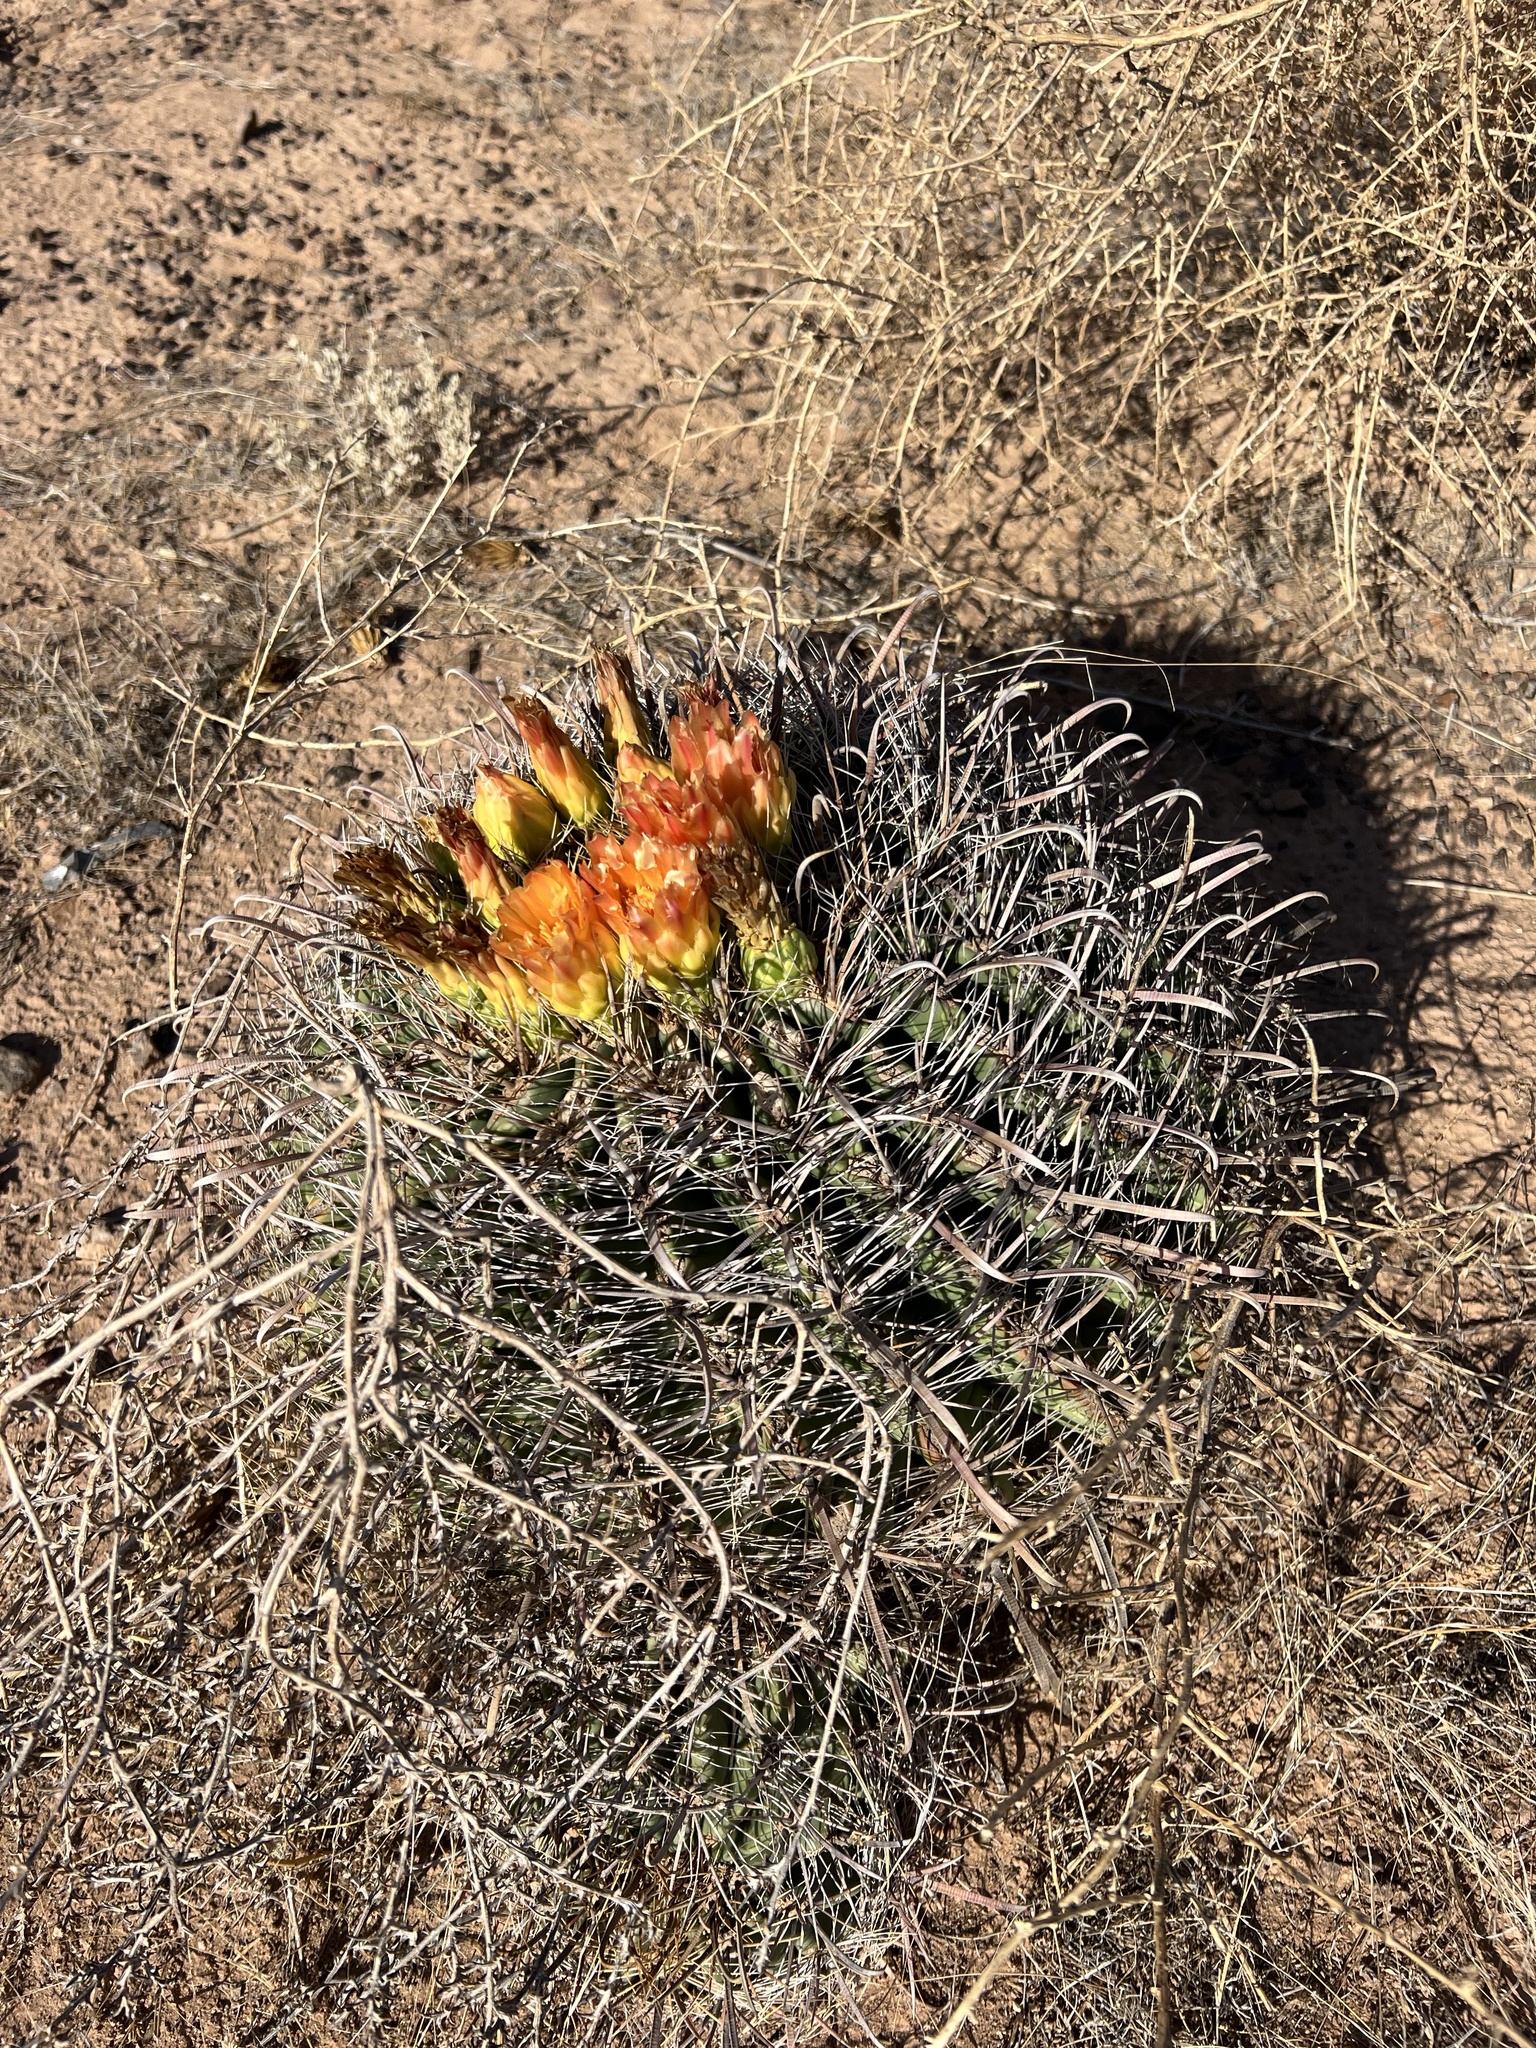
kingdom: Plantae
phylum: Tracheophyta
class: Magnoliopsida
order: Caryophyllales
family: Cactaceae
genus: Ferocactus
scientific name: Ferocactus wislizeni
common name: Candy barrel cactus
